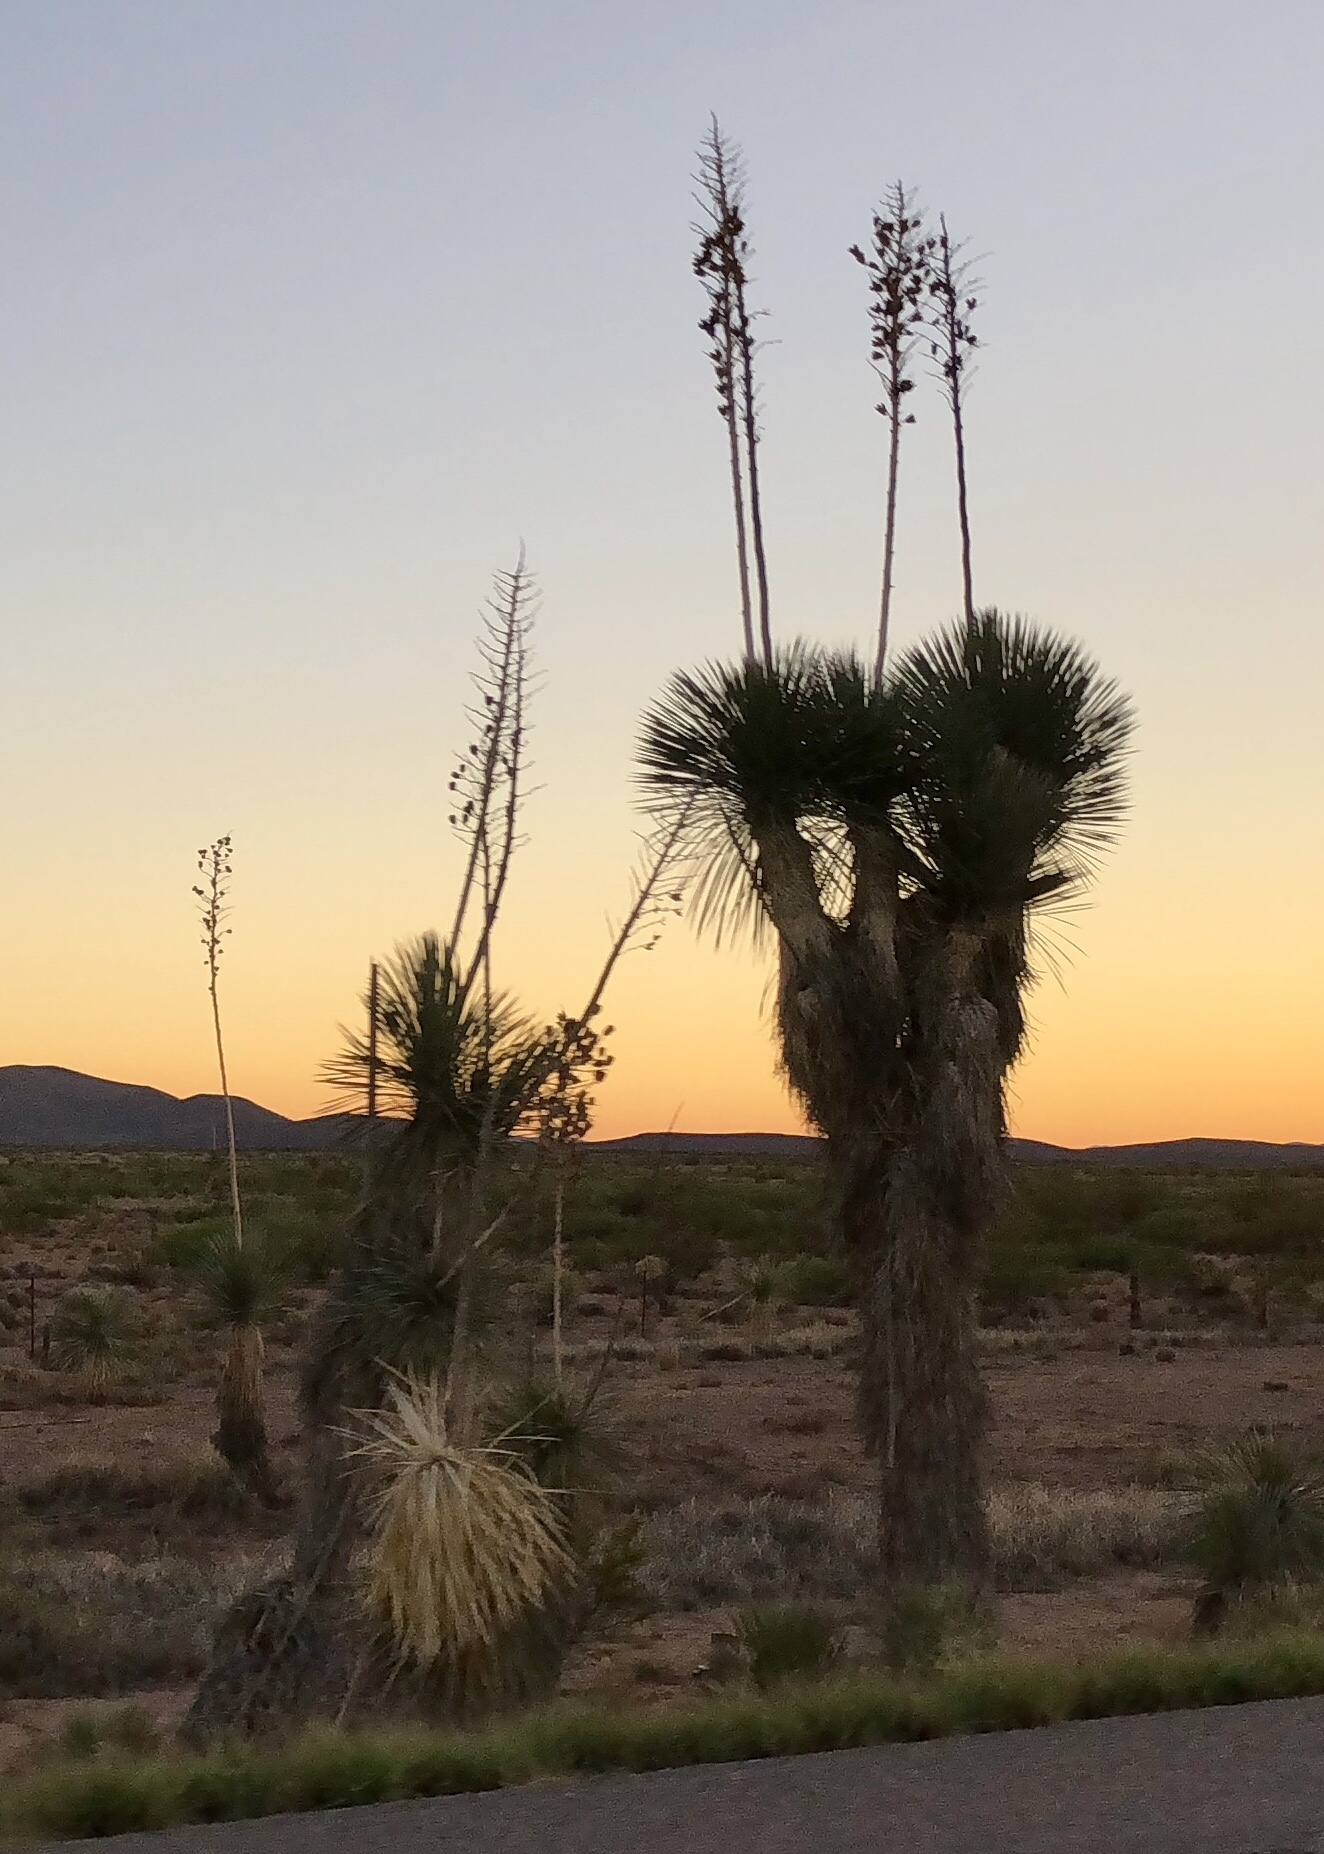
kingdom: Plantae
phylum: Tracheophyta
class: Liliopsida
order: Asparagales
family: Asparagaceae
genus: Yucca
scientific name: Yucca elata
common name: Palmella
